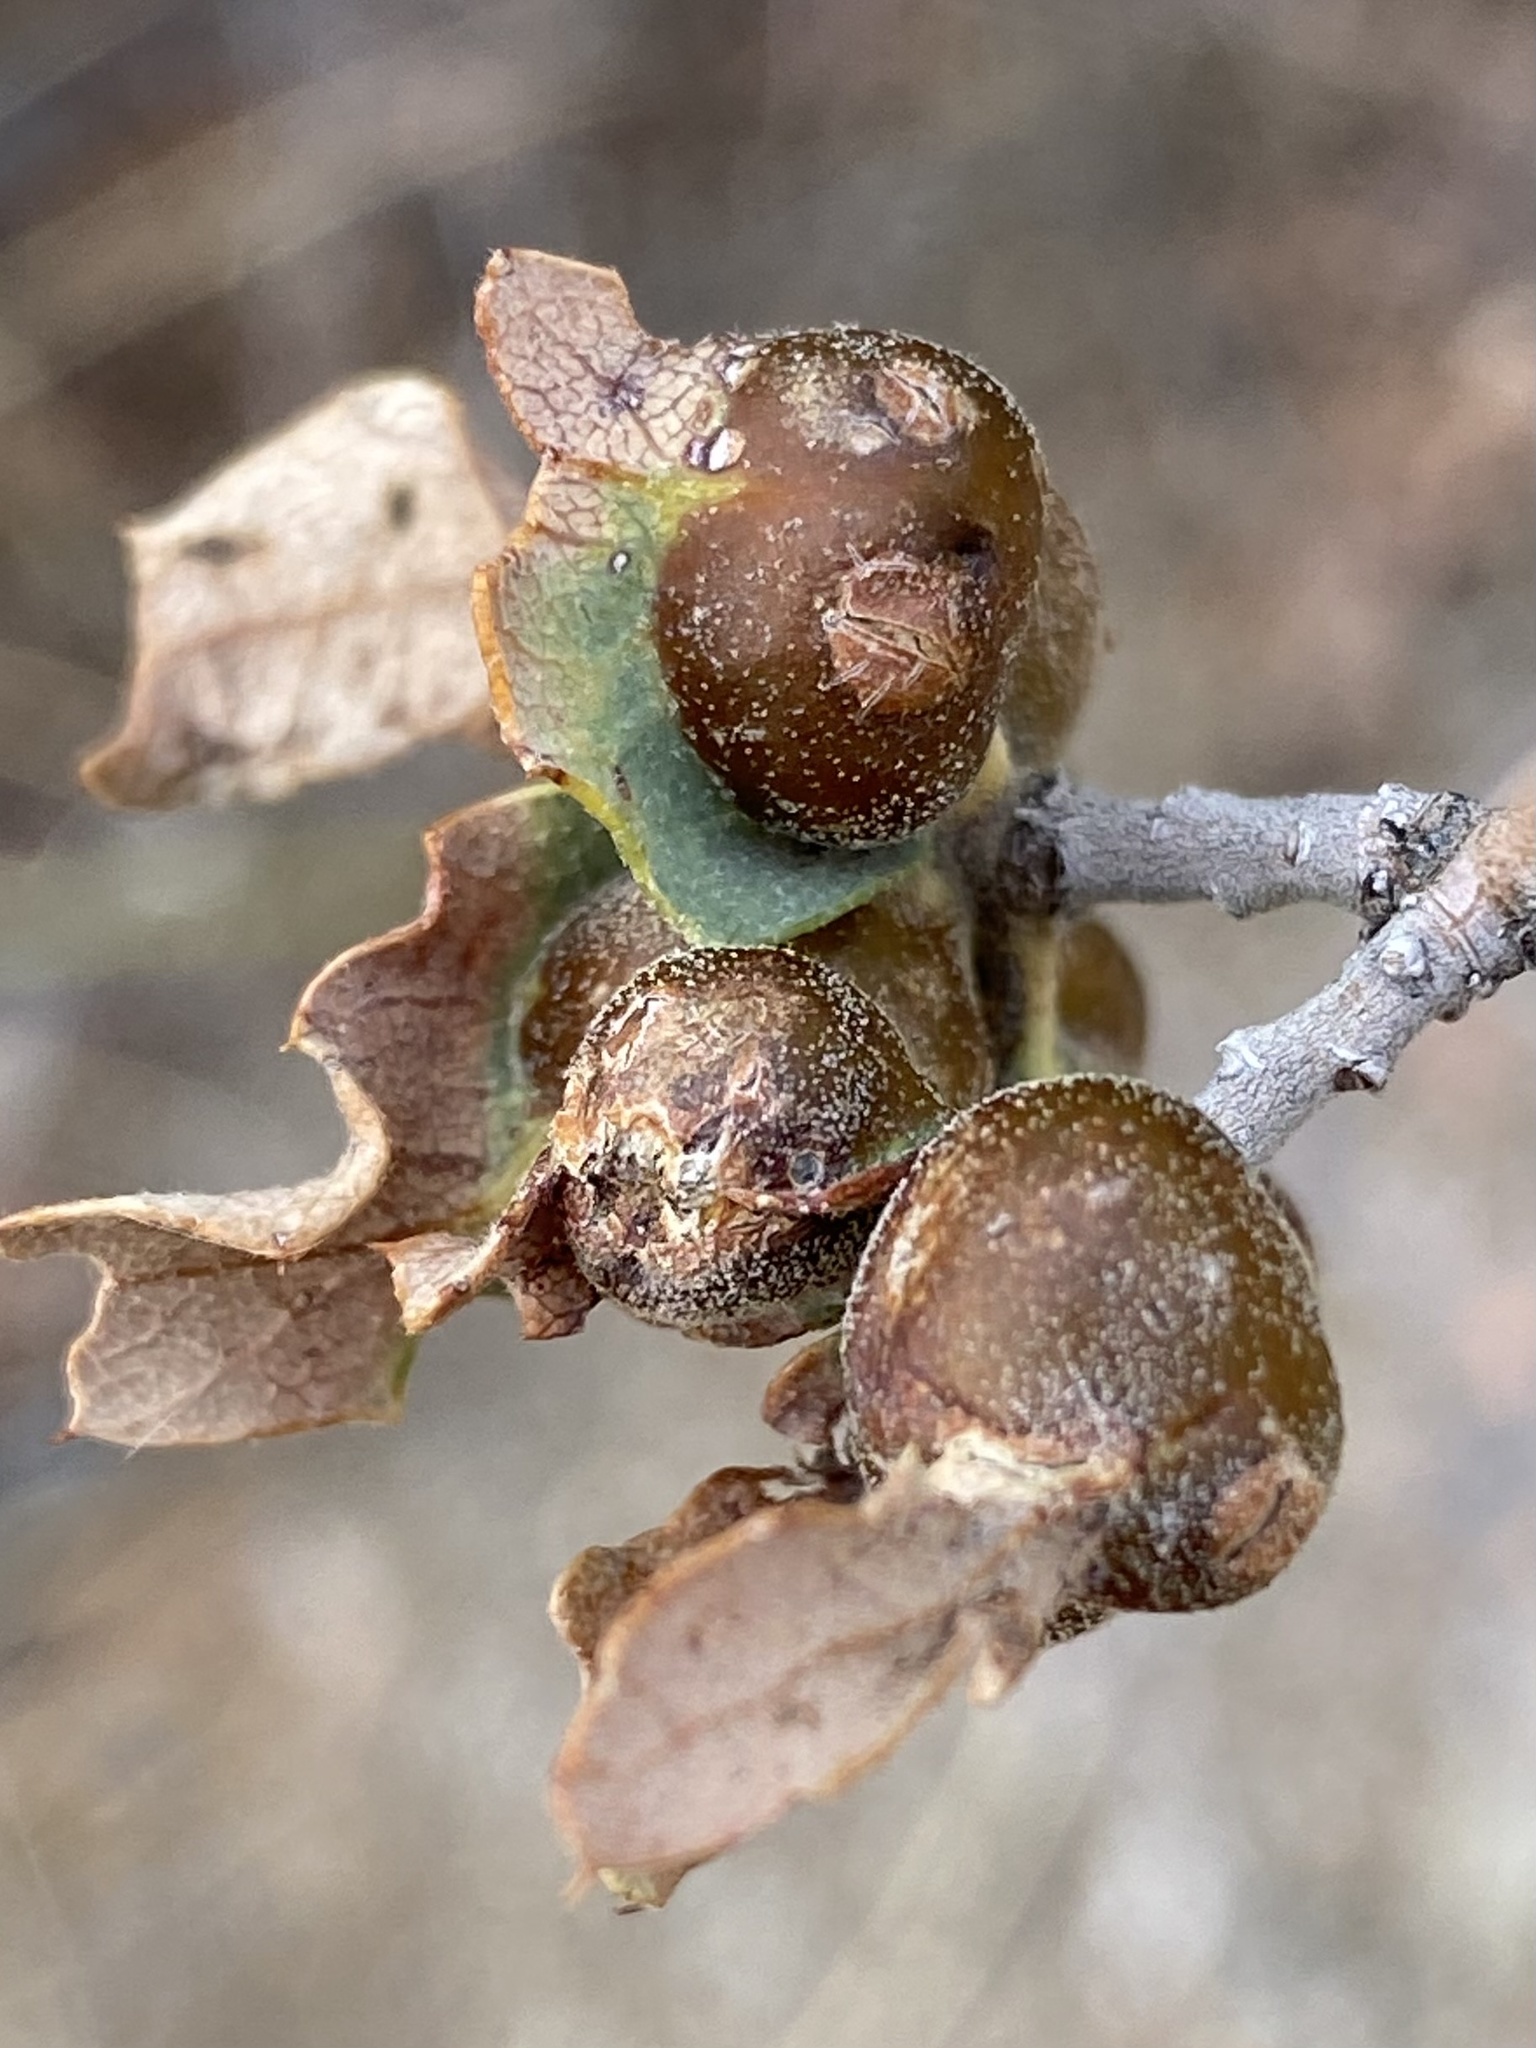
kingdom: Animalia
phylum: Arthropoda
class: Insecta
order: Hymenoptera
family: Cynipidae
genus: Andricus
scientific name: Andricus
